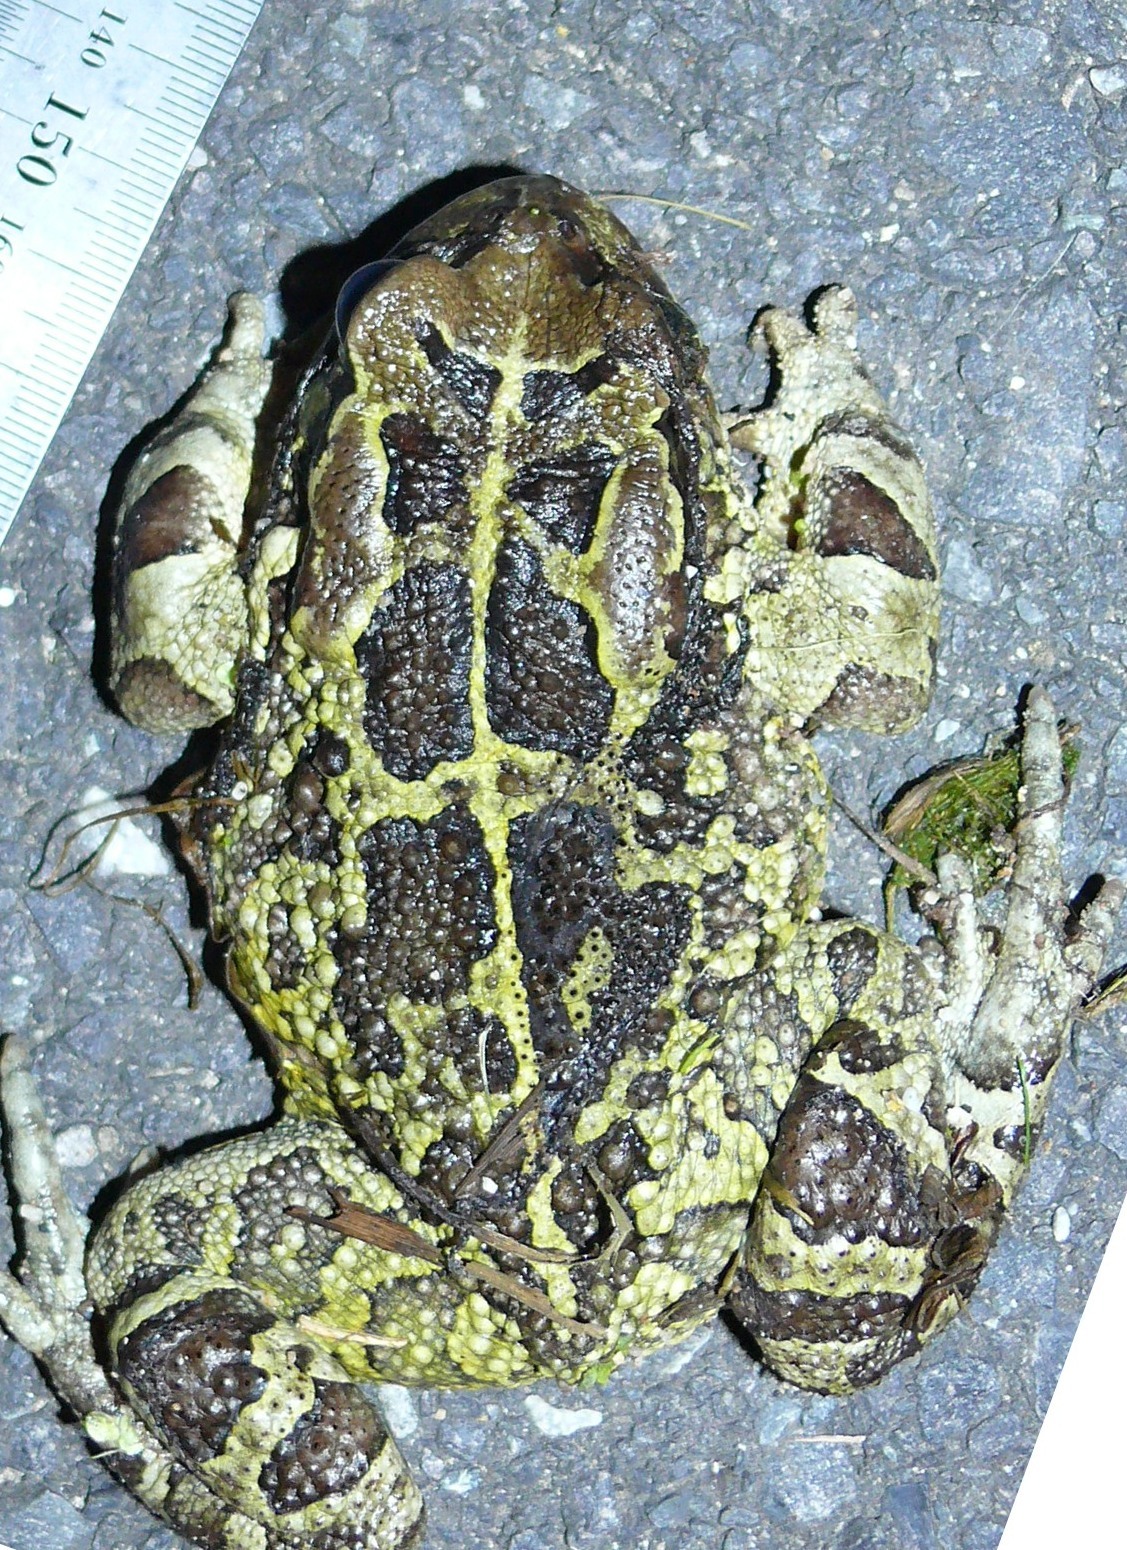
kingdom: Animalia
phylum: Chordata
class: Amphibia
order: Anura
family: Bufonidae
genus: Sclerophrys
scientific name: Sclerophrys pantherina
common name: Panther toad
